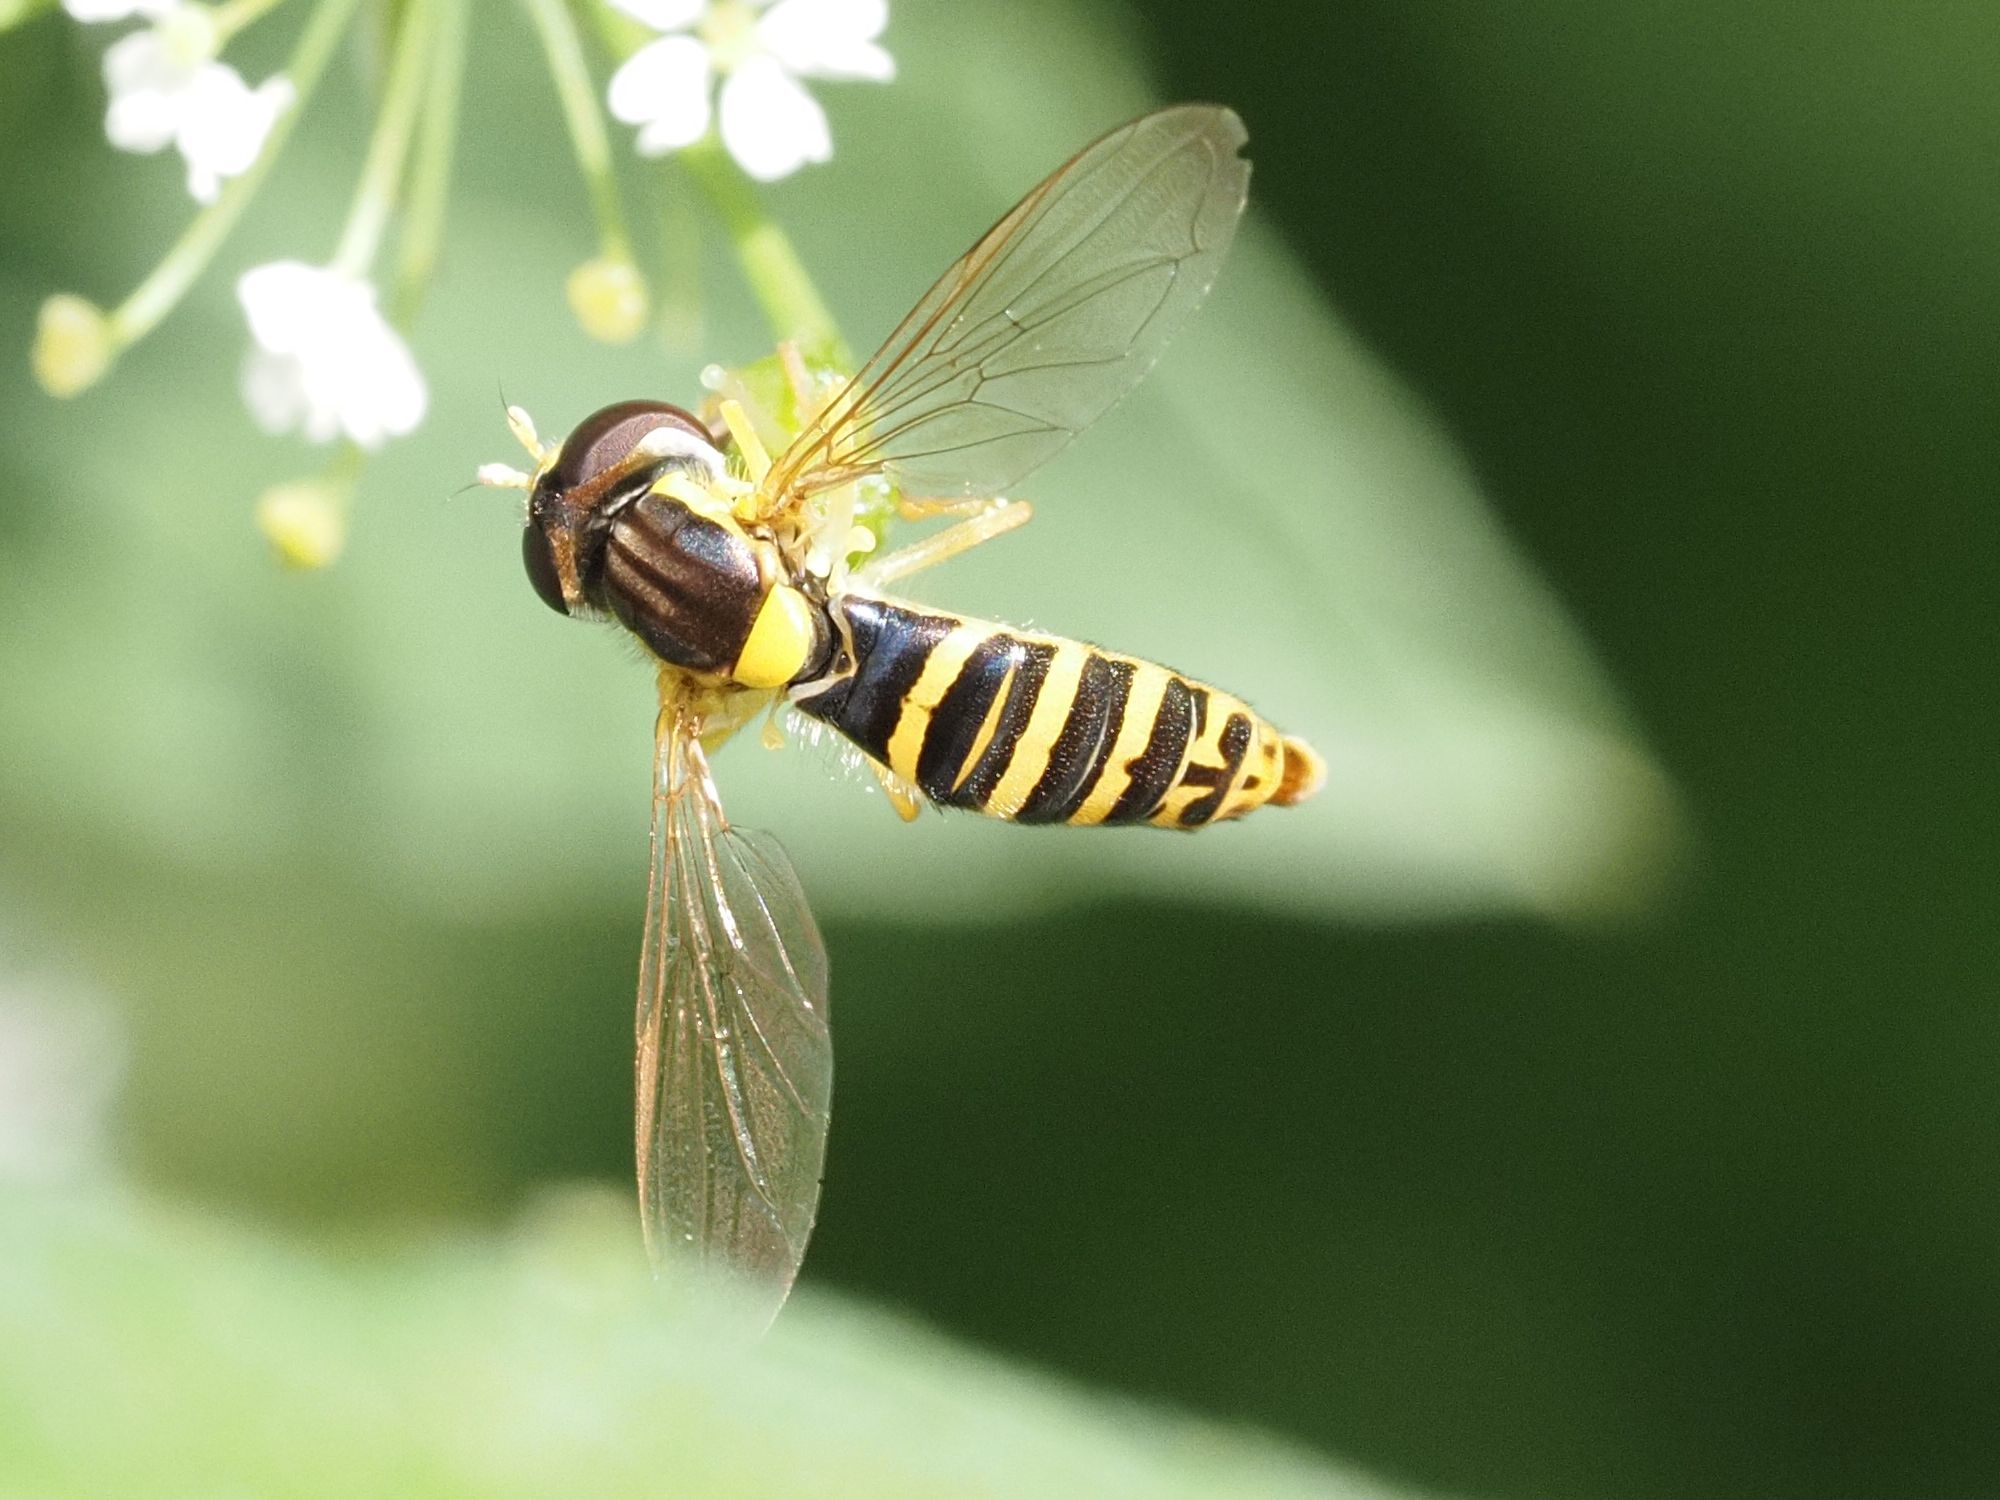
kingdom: Animalia
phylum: Arthropoda
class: Insecta
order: Diptera
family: Syrphidae
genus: Sphaerophoria
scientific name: Sphaerophoria
